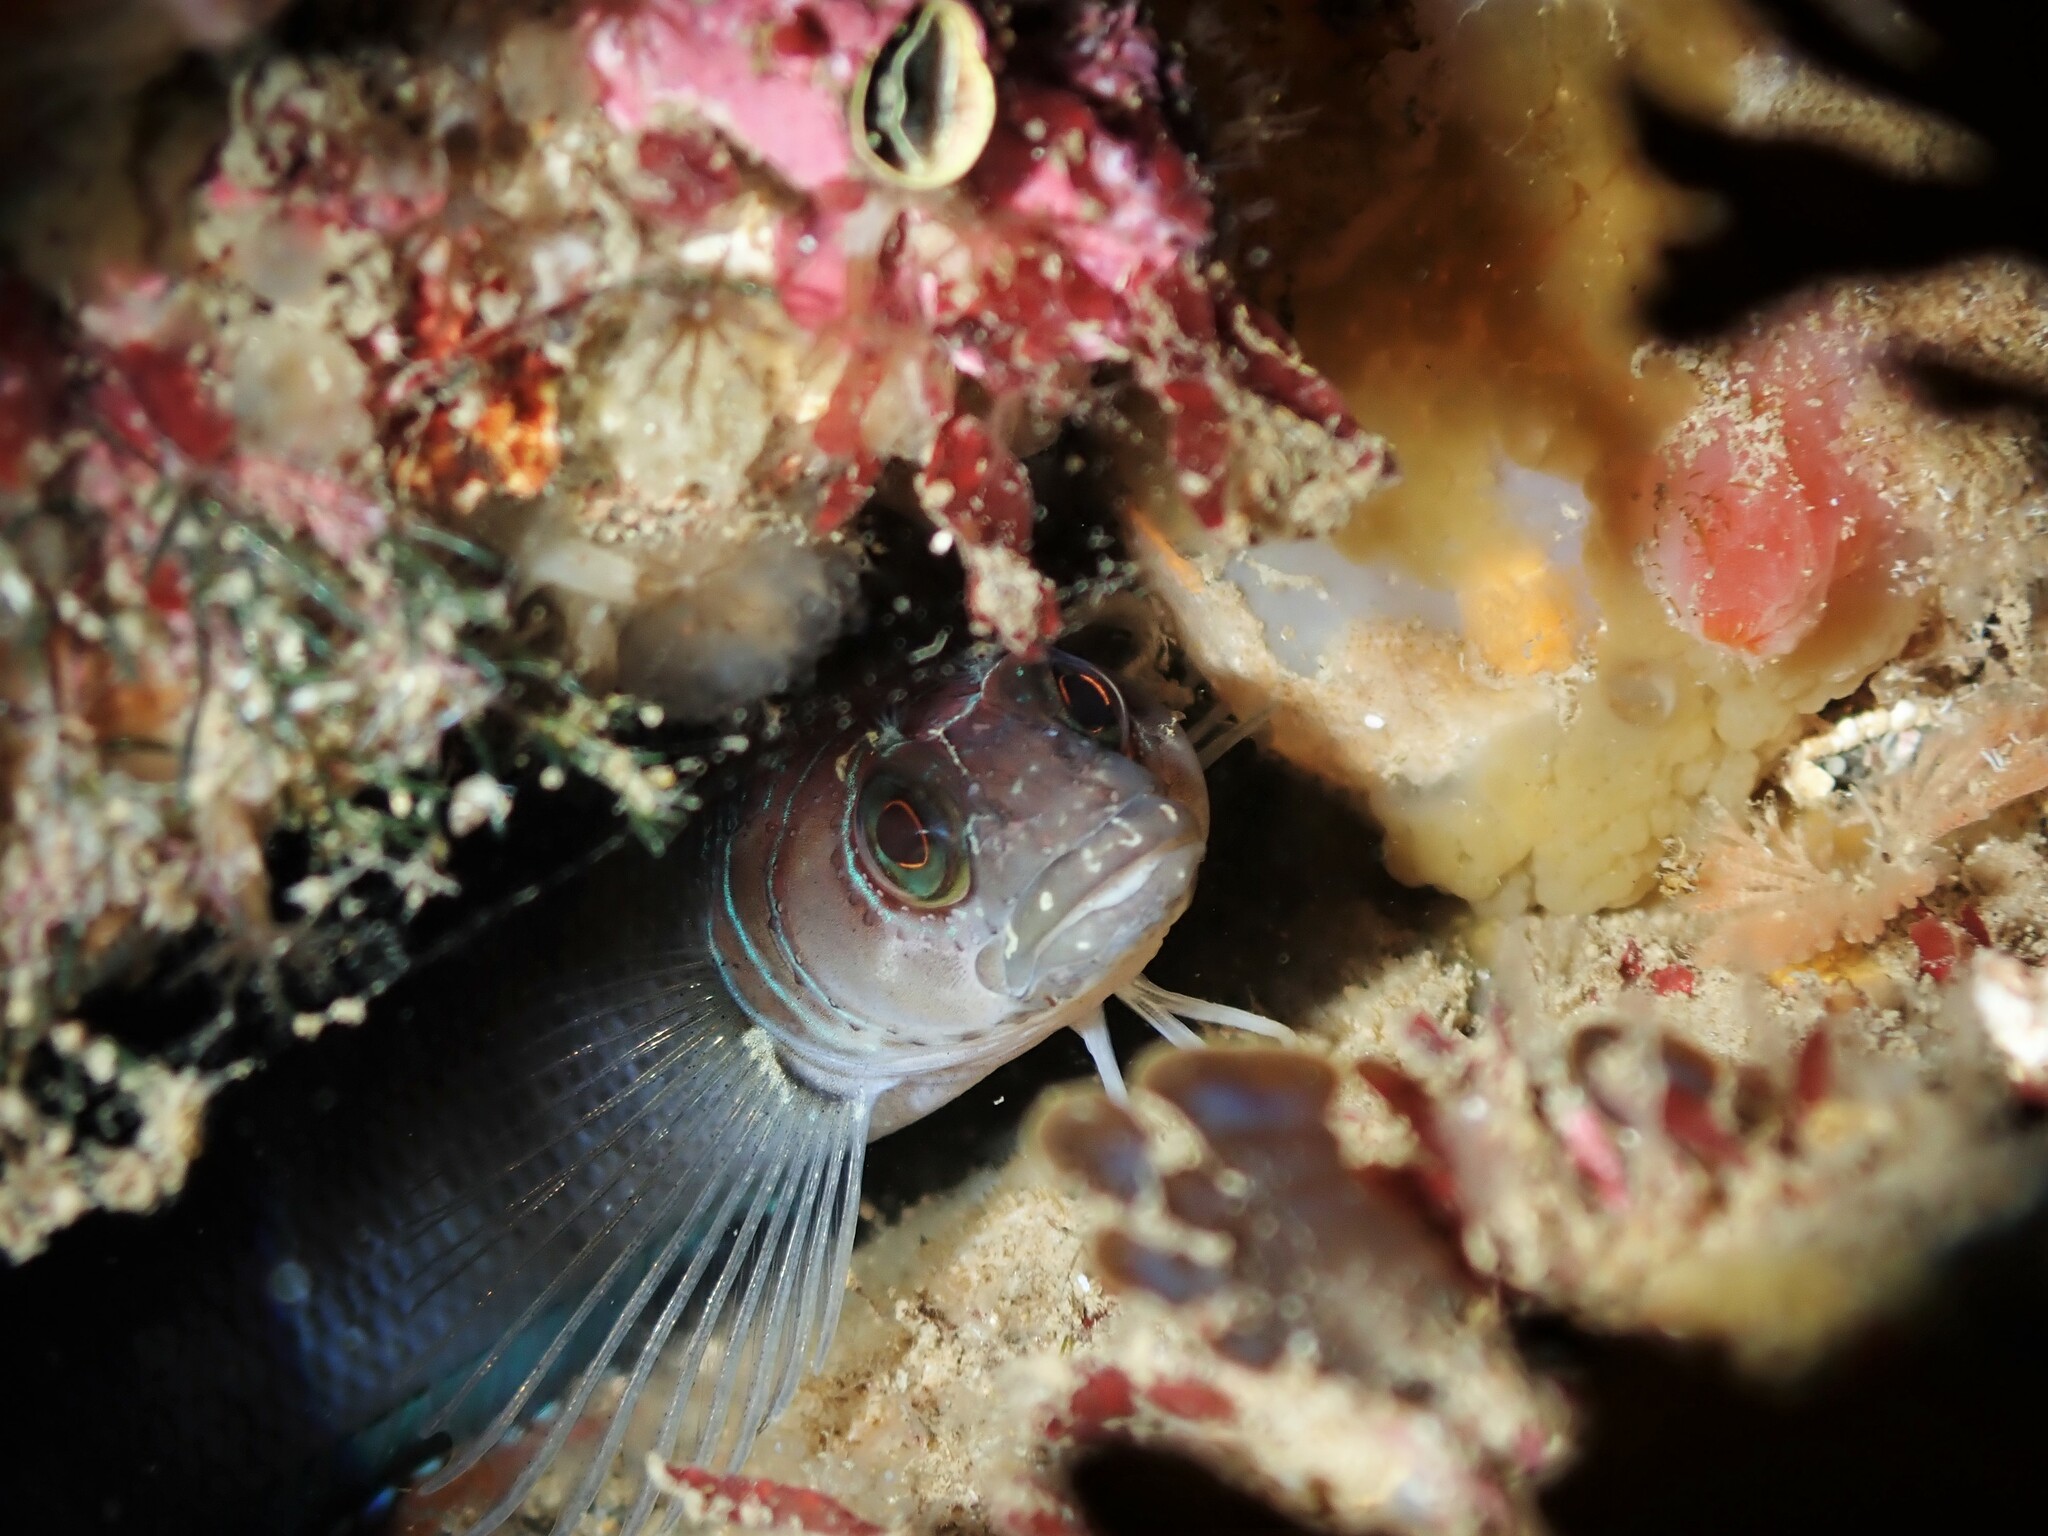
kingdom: Animalia
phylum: Chordata
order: Perciformes
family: Tripterygiidae
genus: Ruanoho
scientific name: Ruanoho whero
